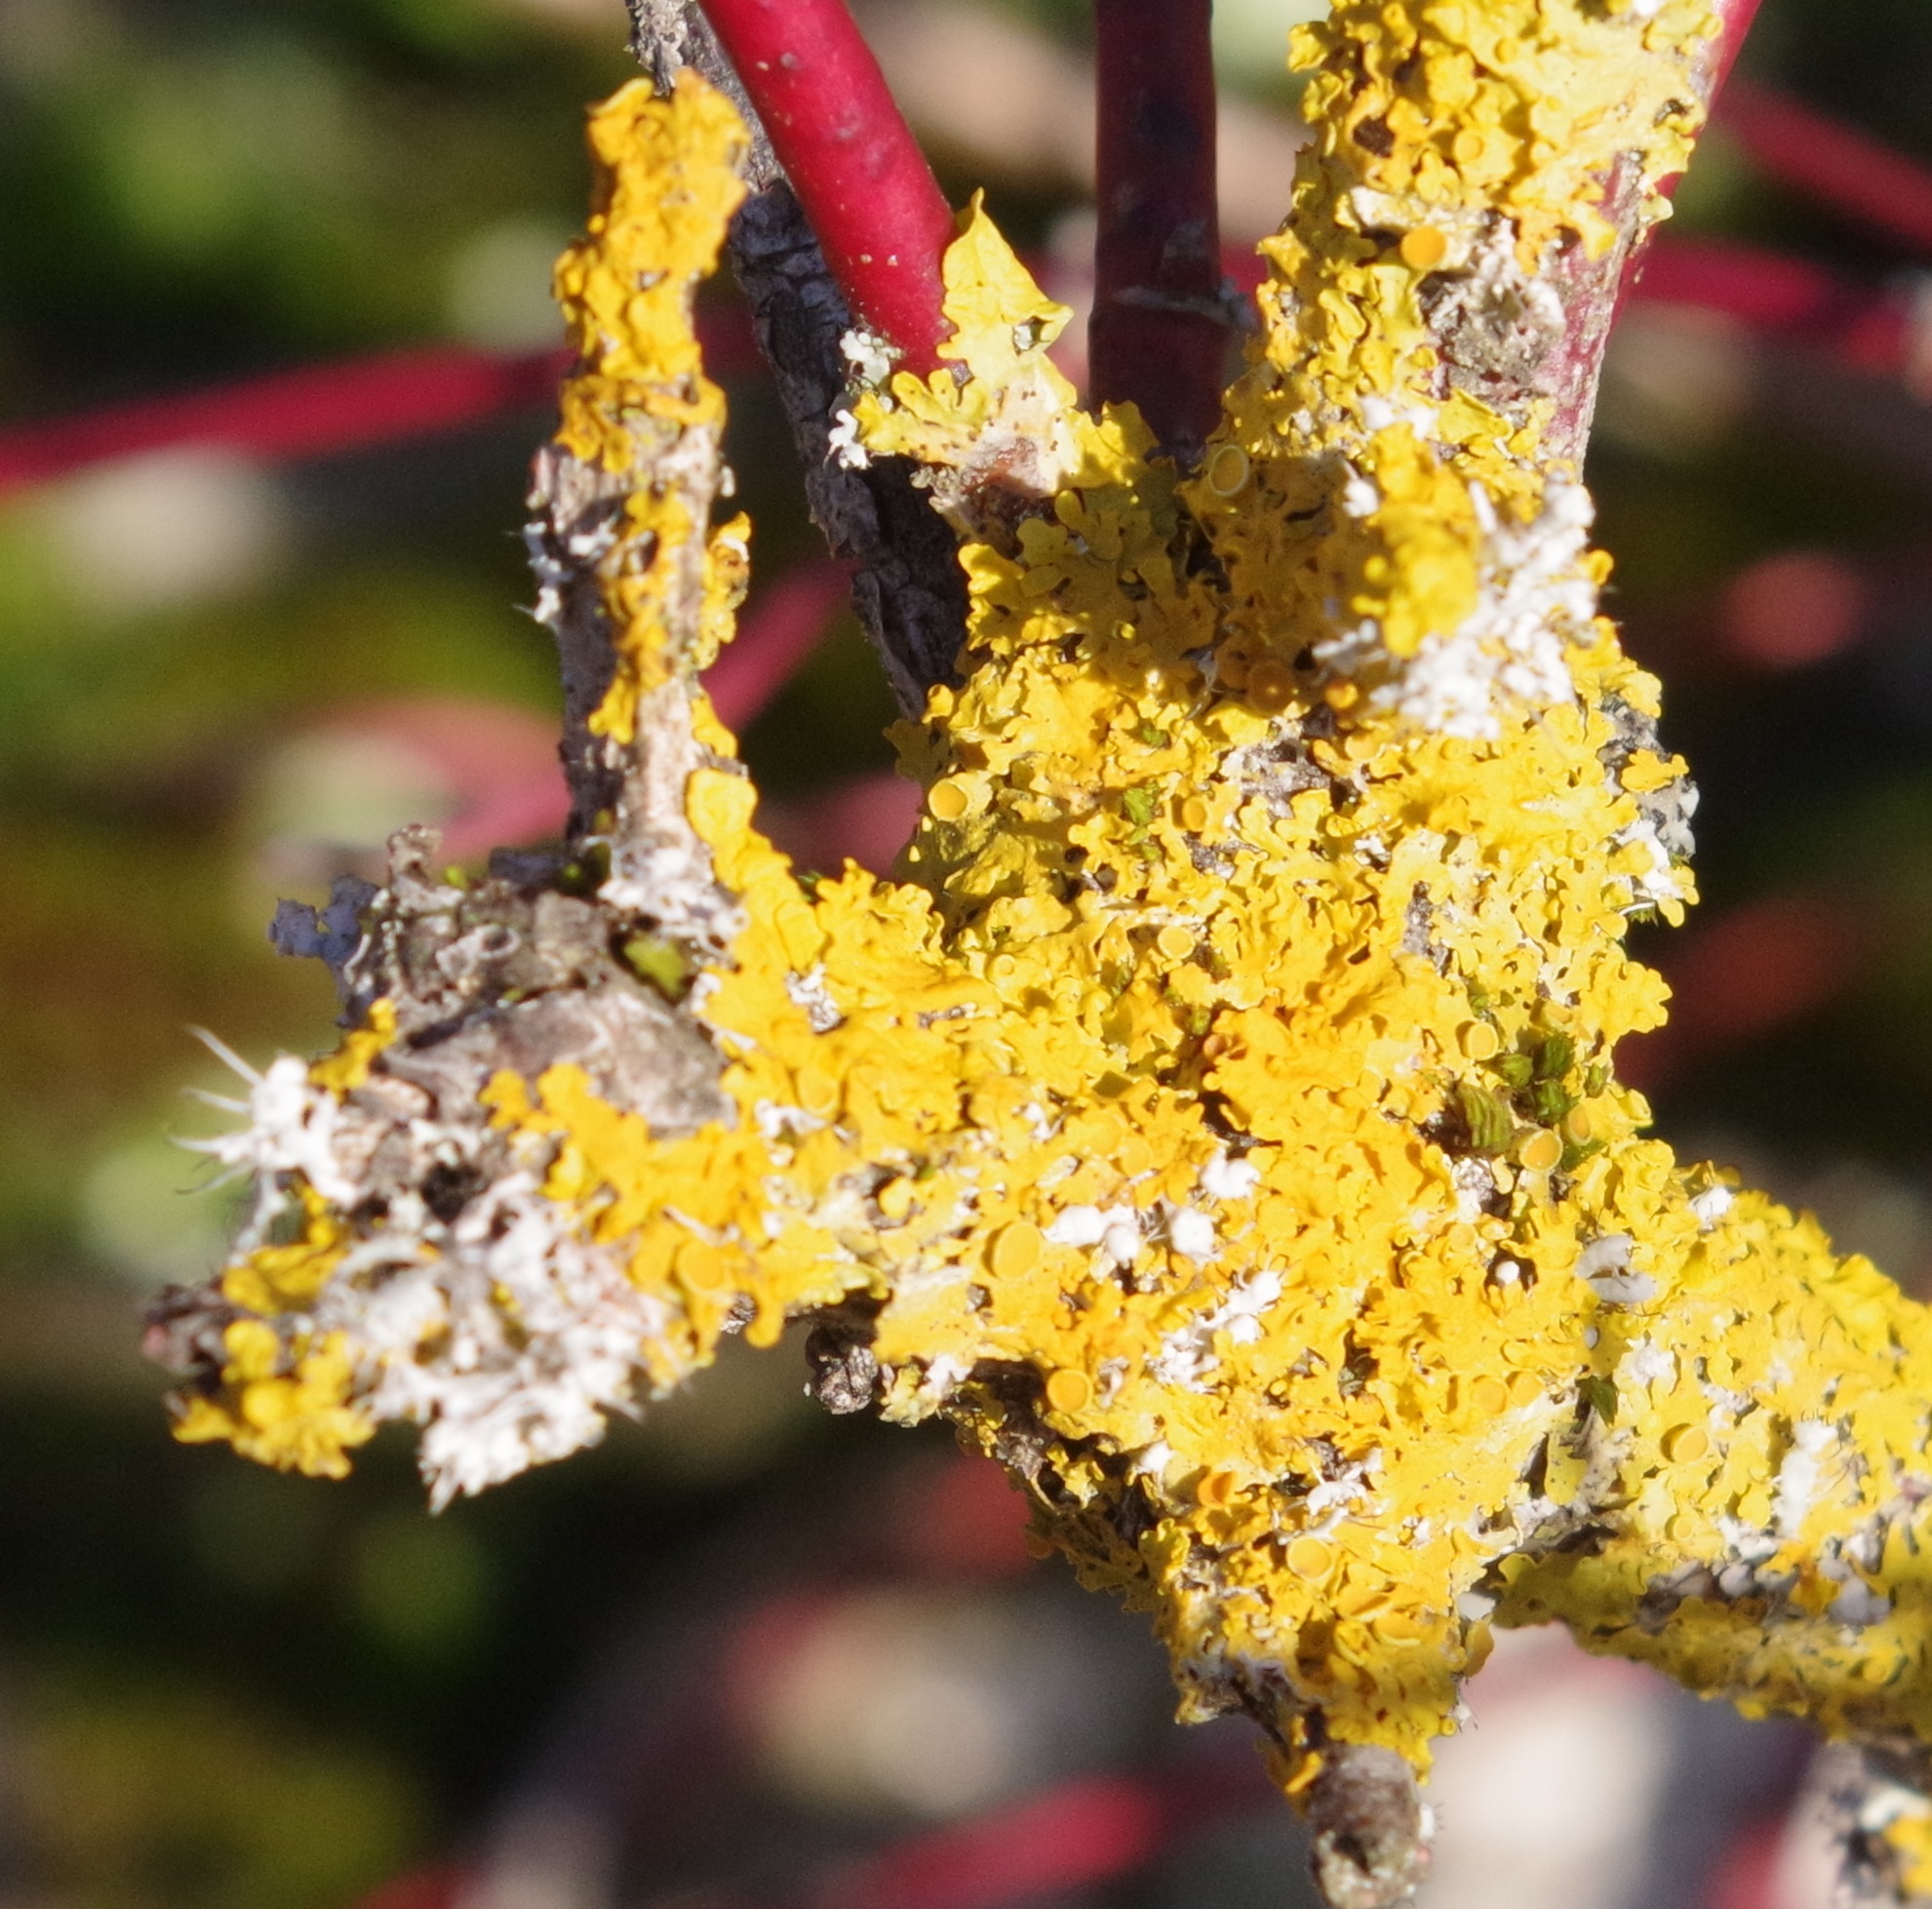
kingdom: Fungi
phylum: Ascomycota
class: Lecanoromycetes
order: Teloschistales
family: Teloschistaceae
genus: Xanthoria
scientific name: Xanthoria parietina
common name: Common orange lichen
